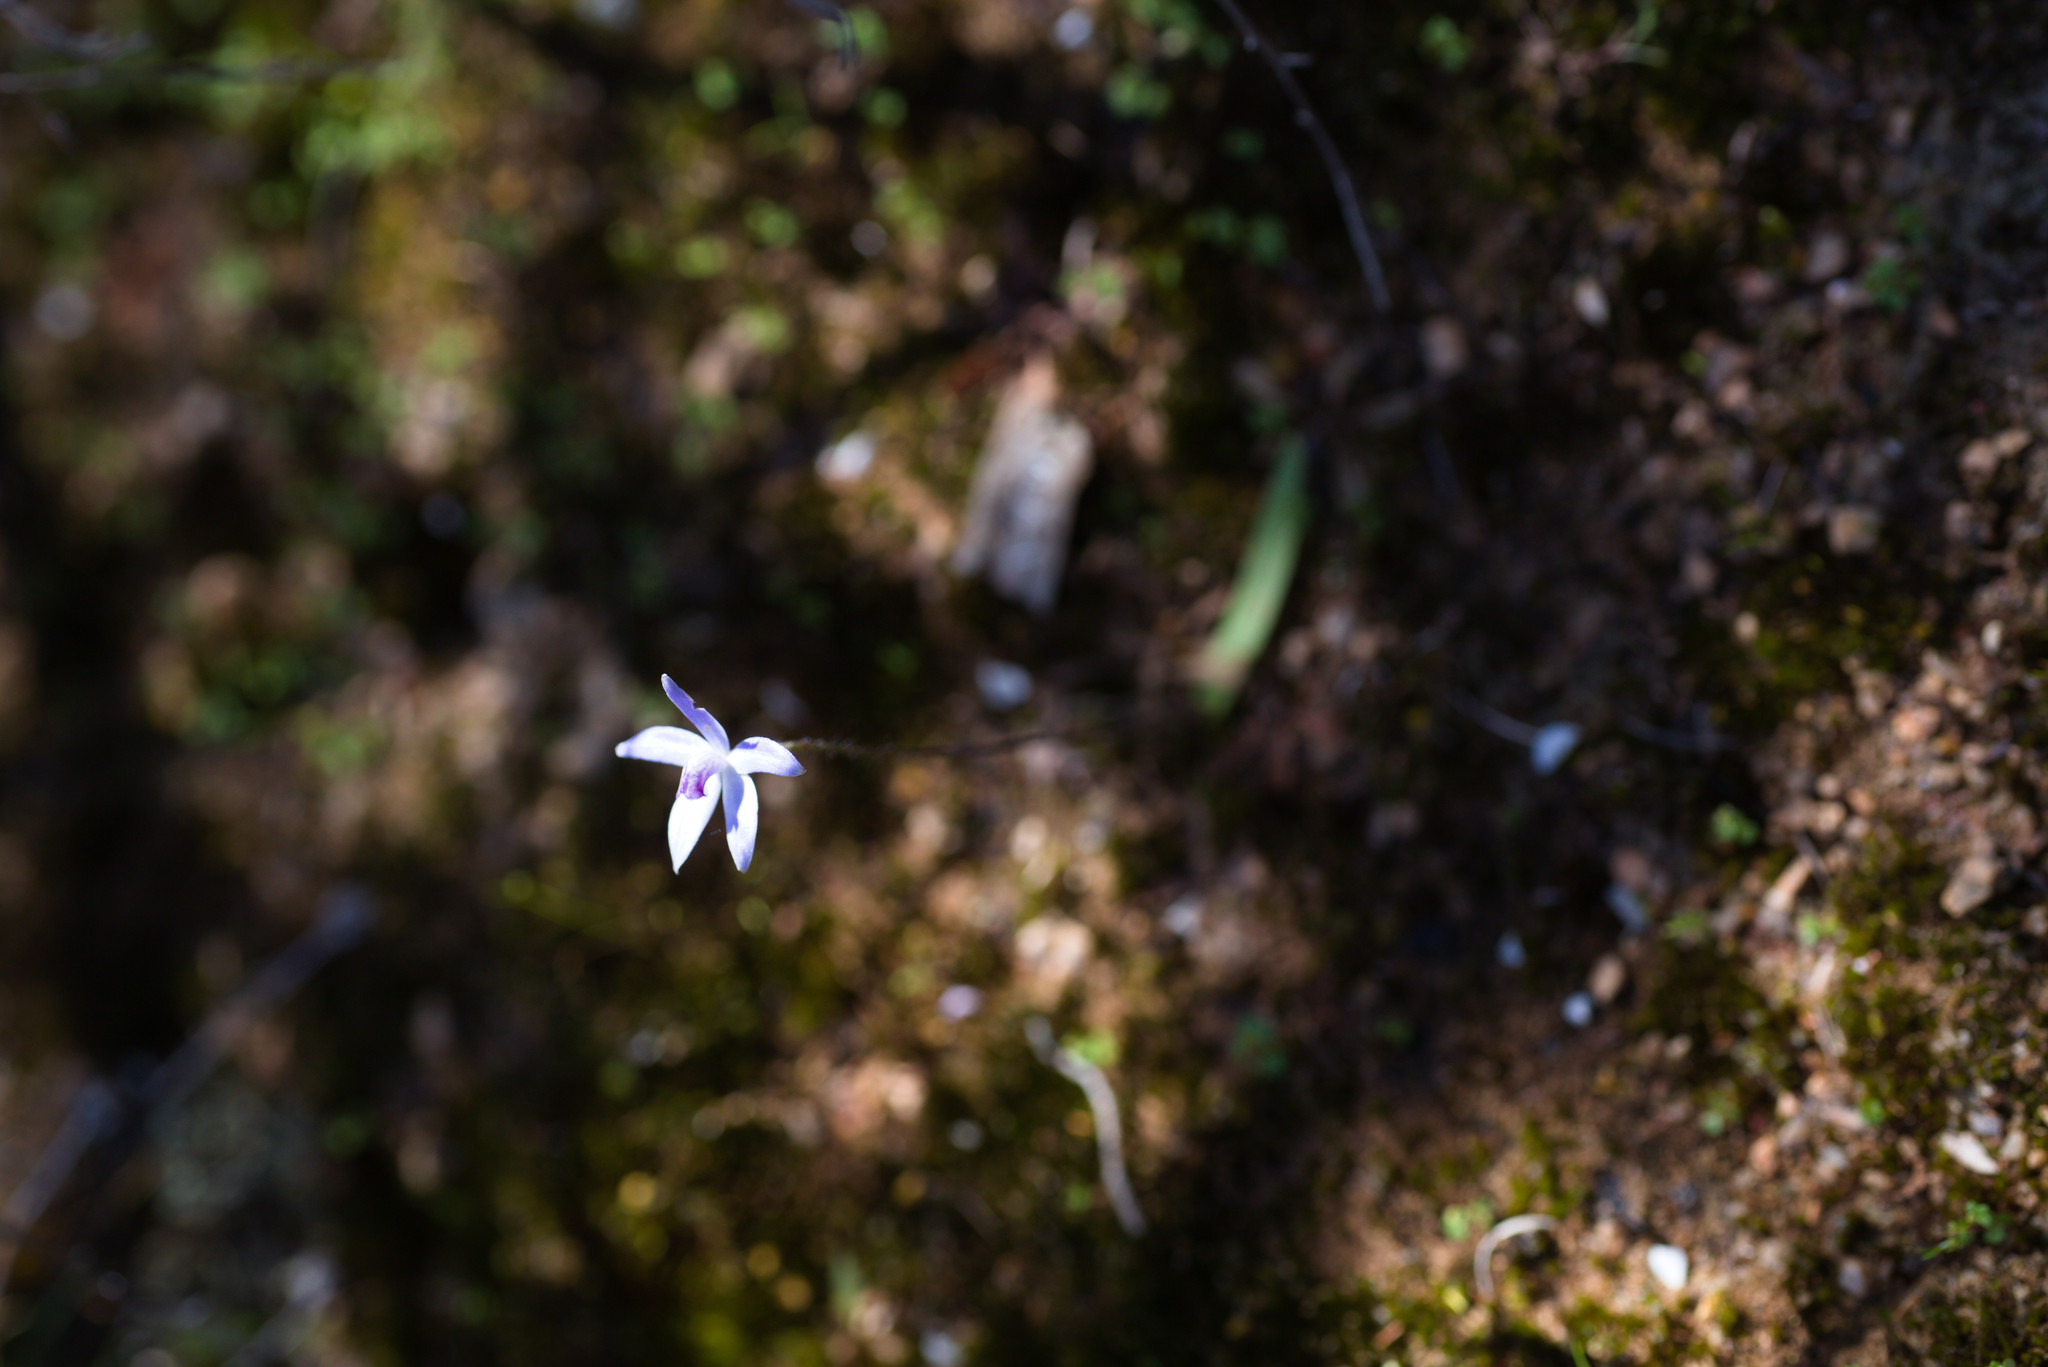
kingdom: Plantae
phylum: Tracheophyta
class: Liliopsida
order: Asparagales
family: Orchidaceae
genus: Caladenia
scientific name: Caladenia amplexans
